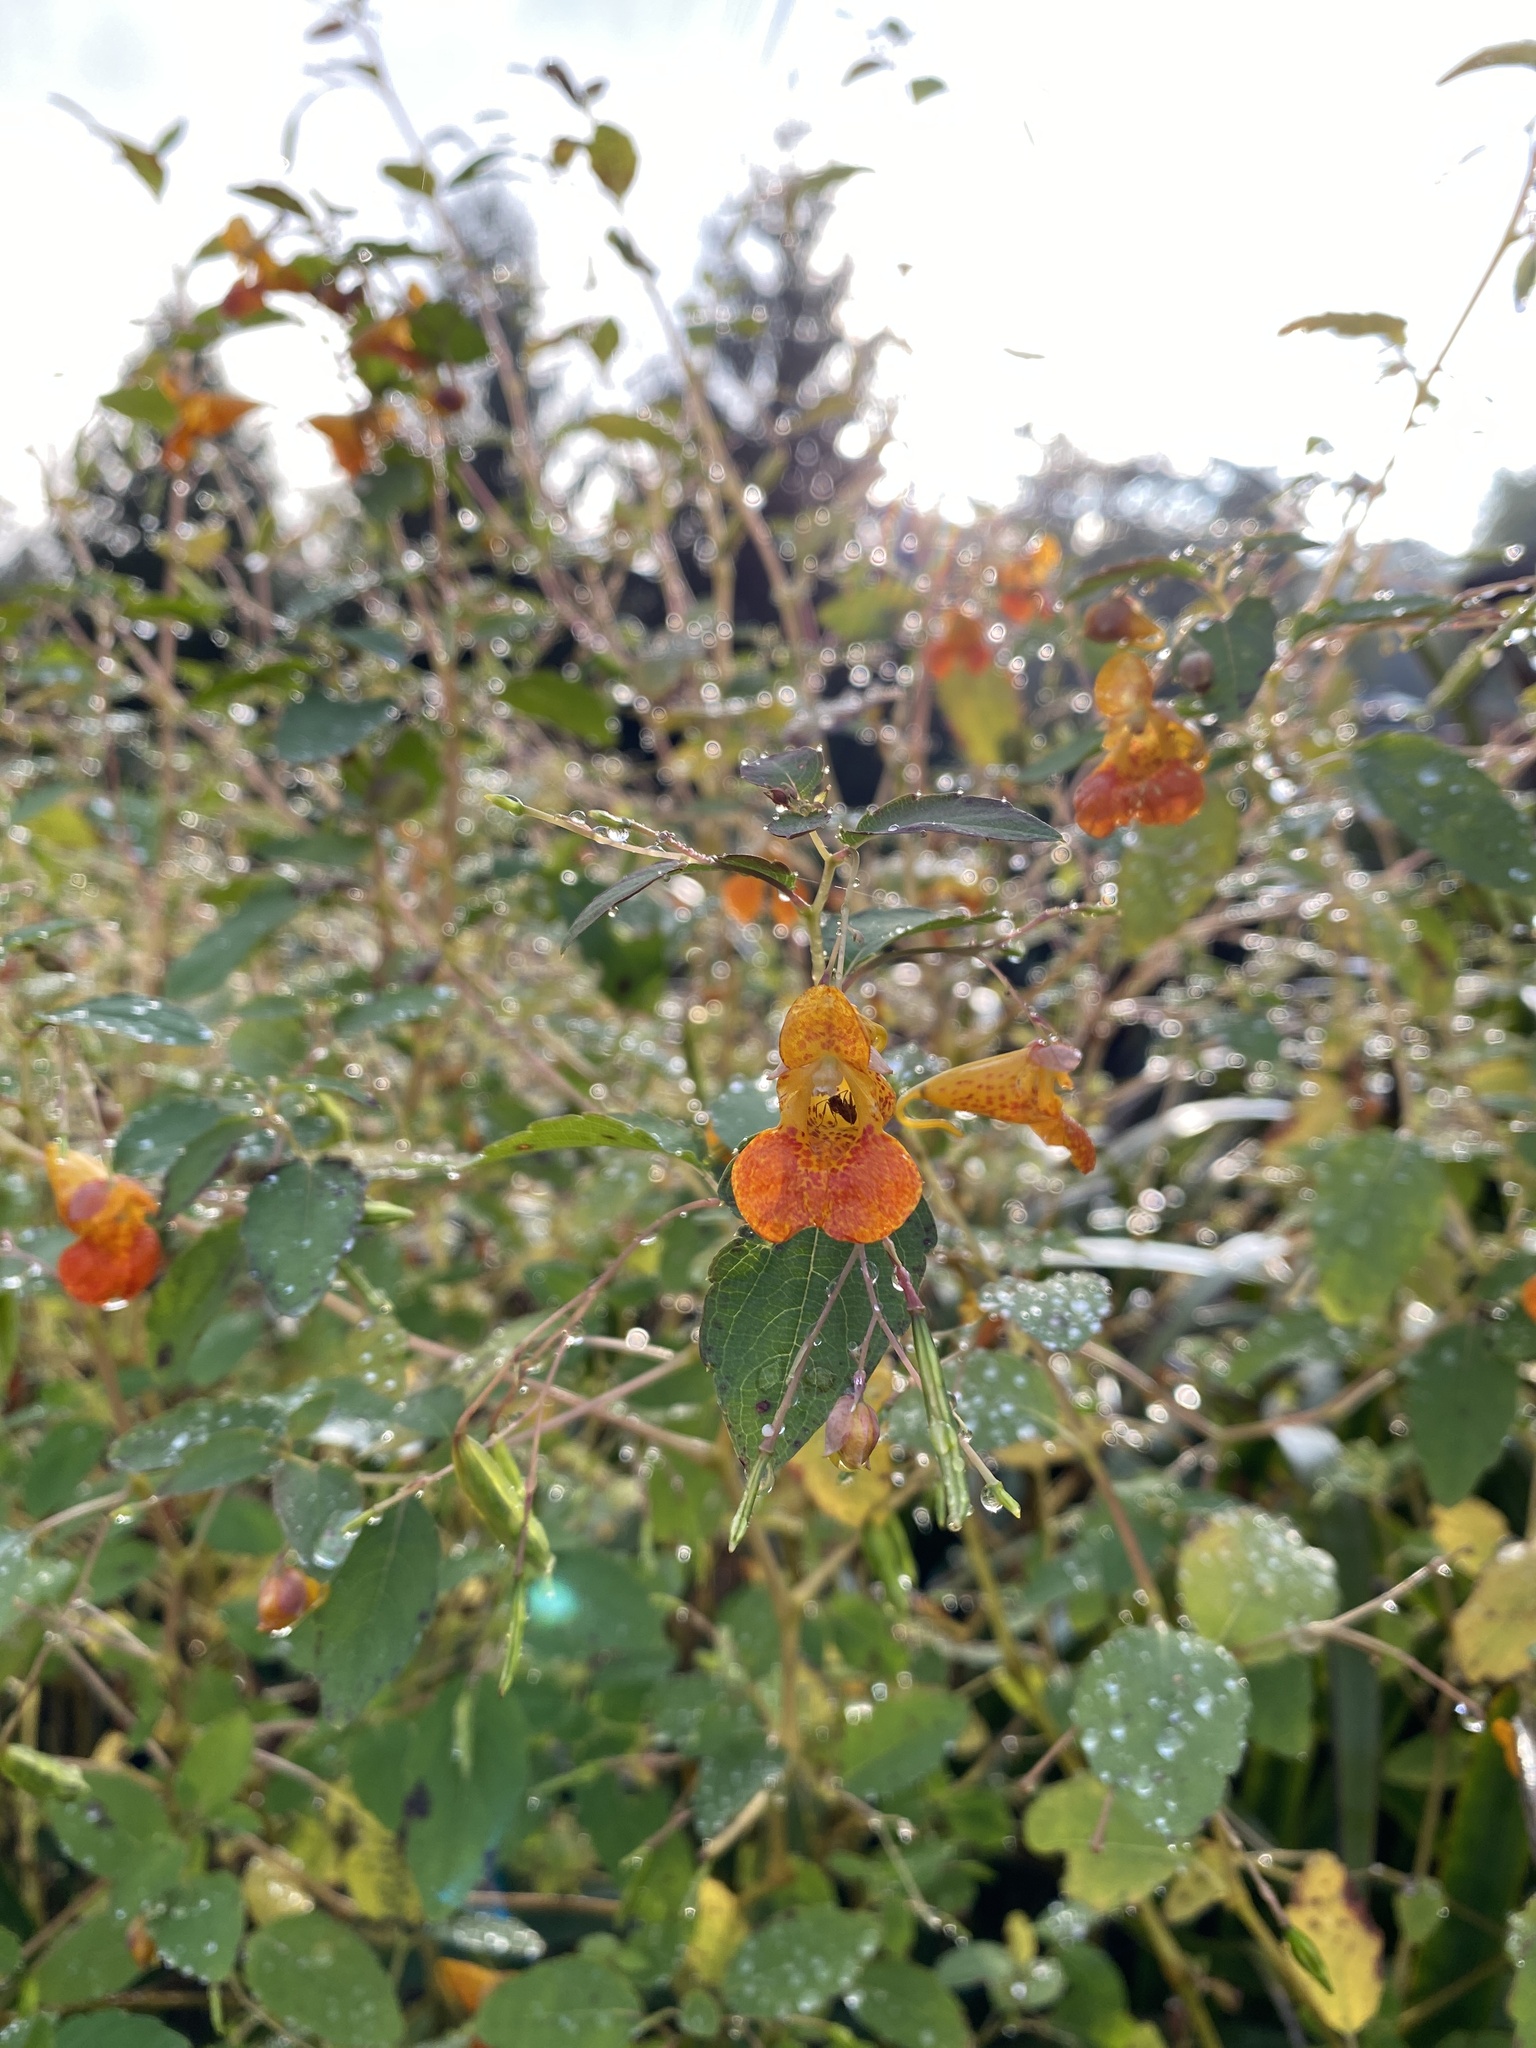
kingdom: Plantae
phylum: Tracheophyta
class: Magnoliopsida
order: Ericales
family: Balsaminaceae
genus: Impatiens
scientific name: Impatiens capensis
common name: Orange balsam
